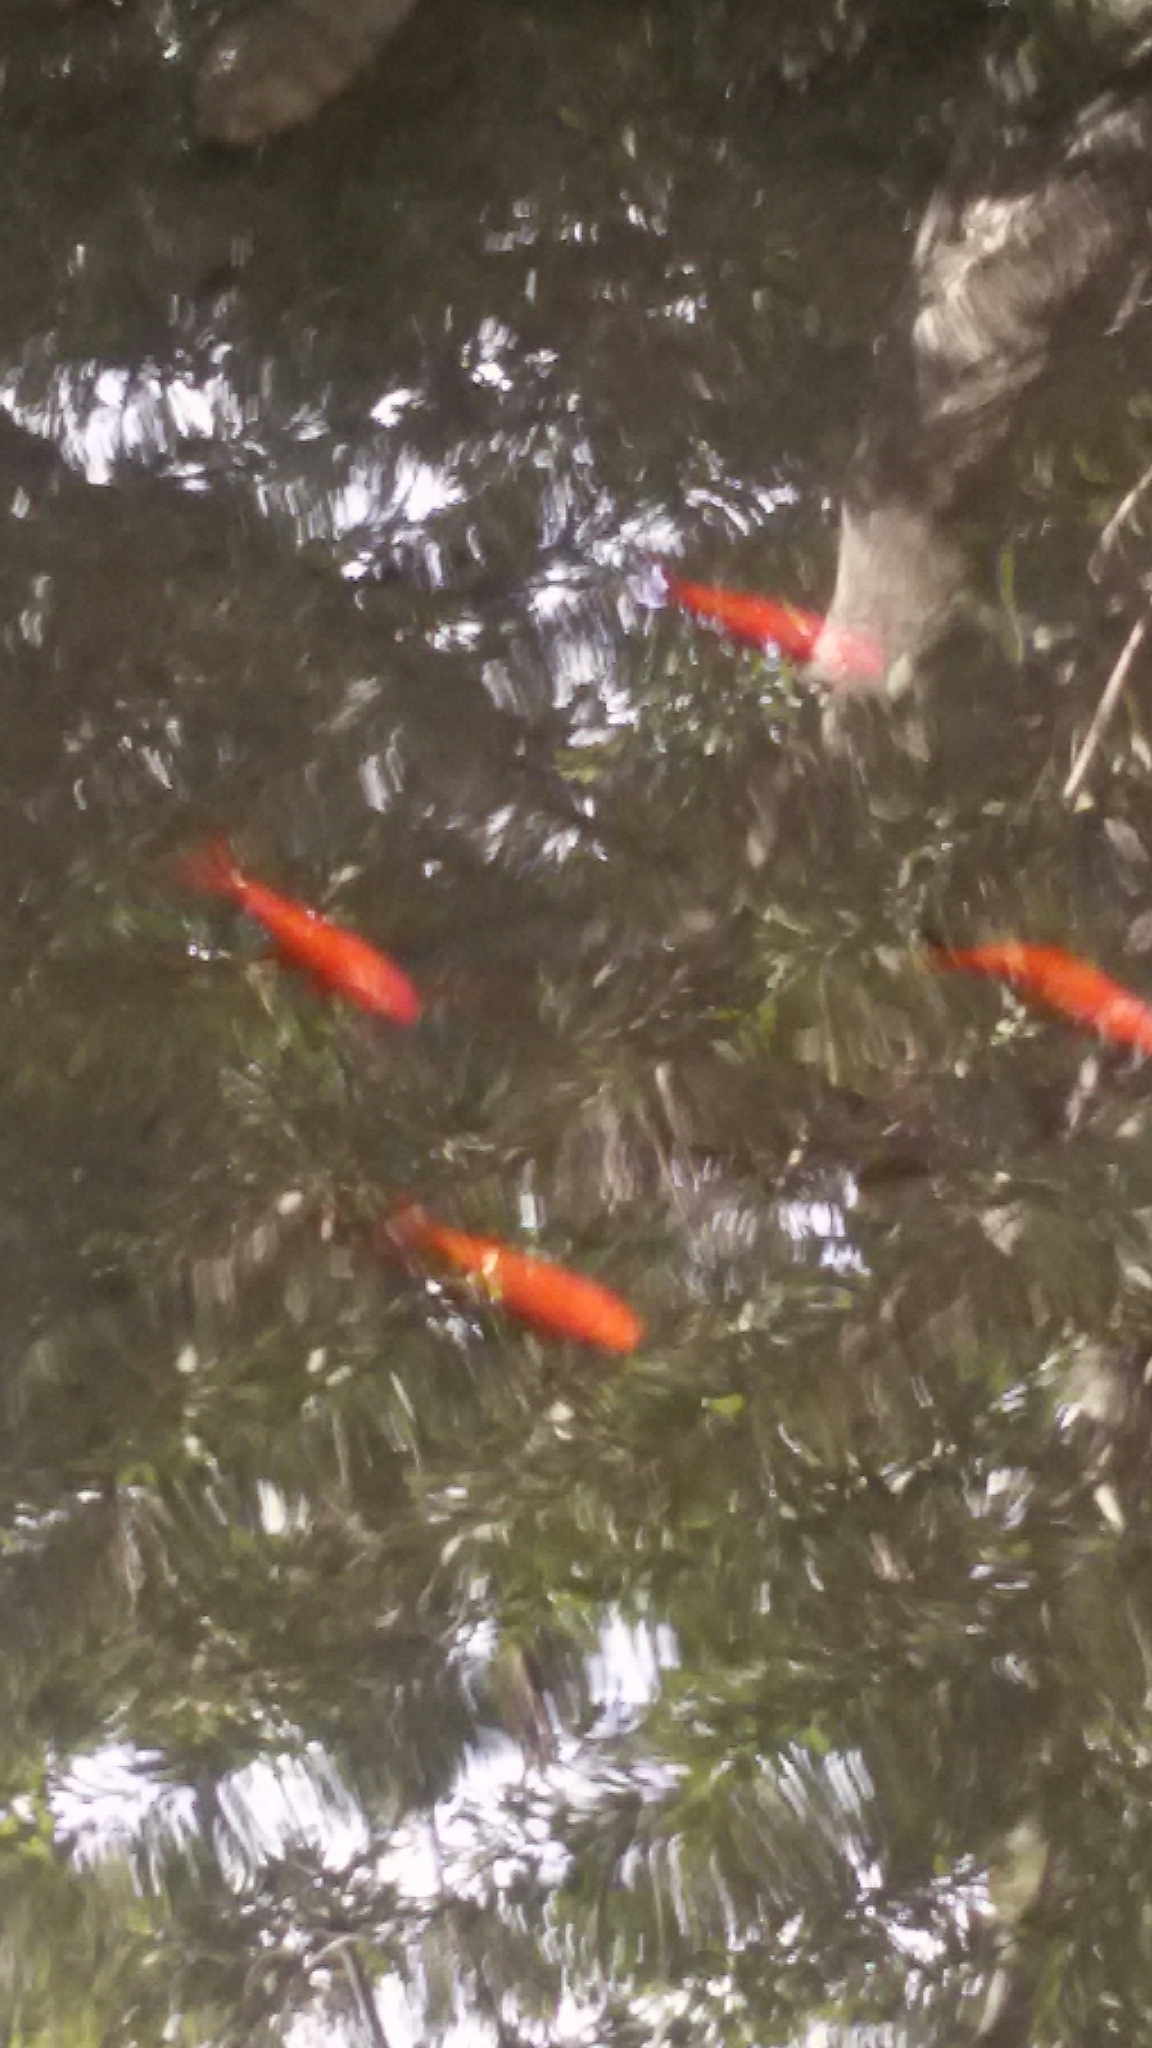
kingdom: Animalia
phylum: Chordata
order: Cypriniformes
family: Cyprinidae
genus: Carassius
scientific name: Carassius auratus
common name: Goldfish
